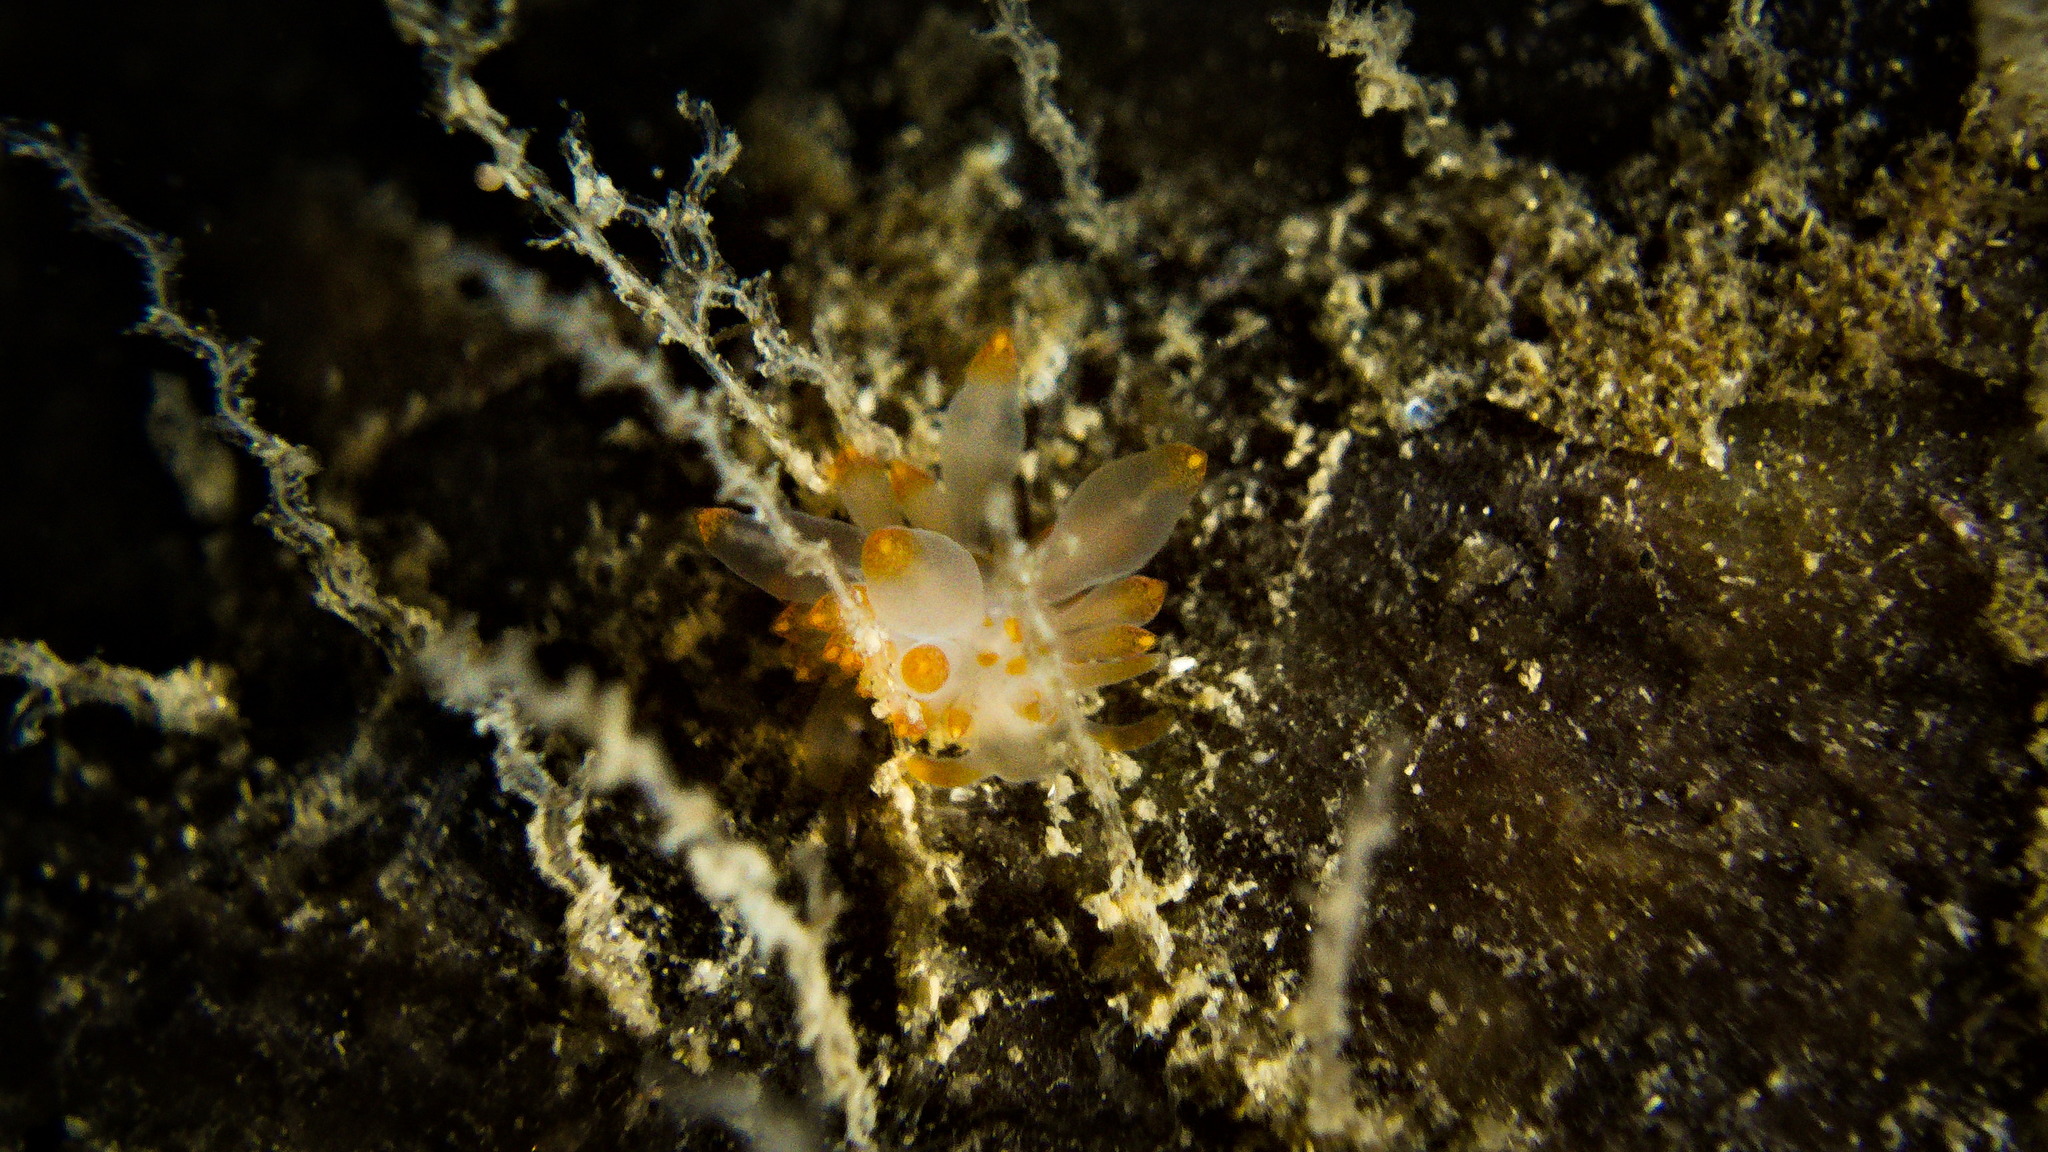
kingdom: Animalia
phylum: Mollusca
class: Gastropoda
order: Nudibranchia
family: Eubranchidae
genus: Amphorina
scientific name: Amphorina farrani
